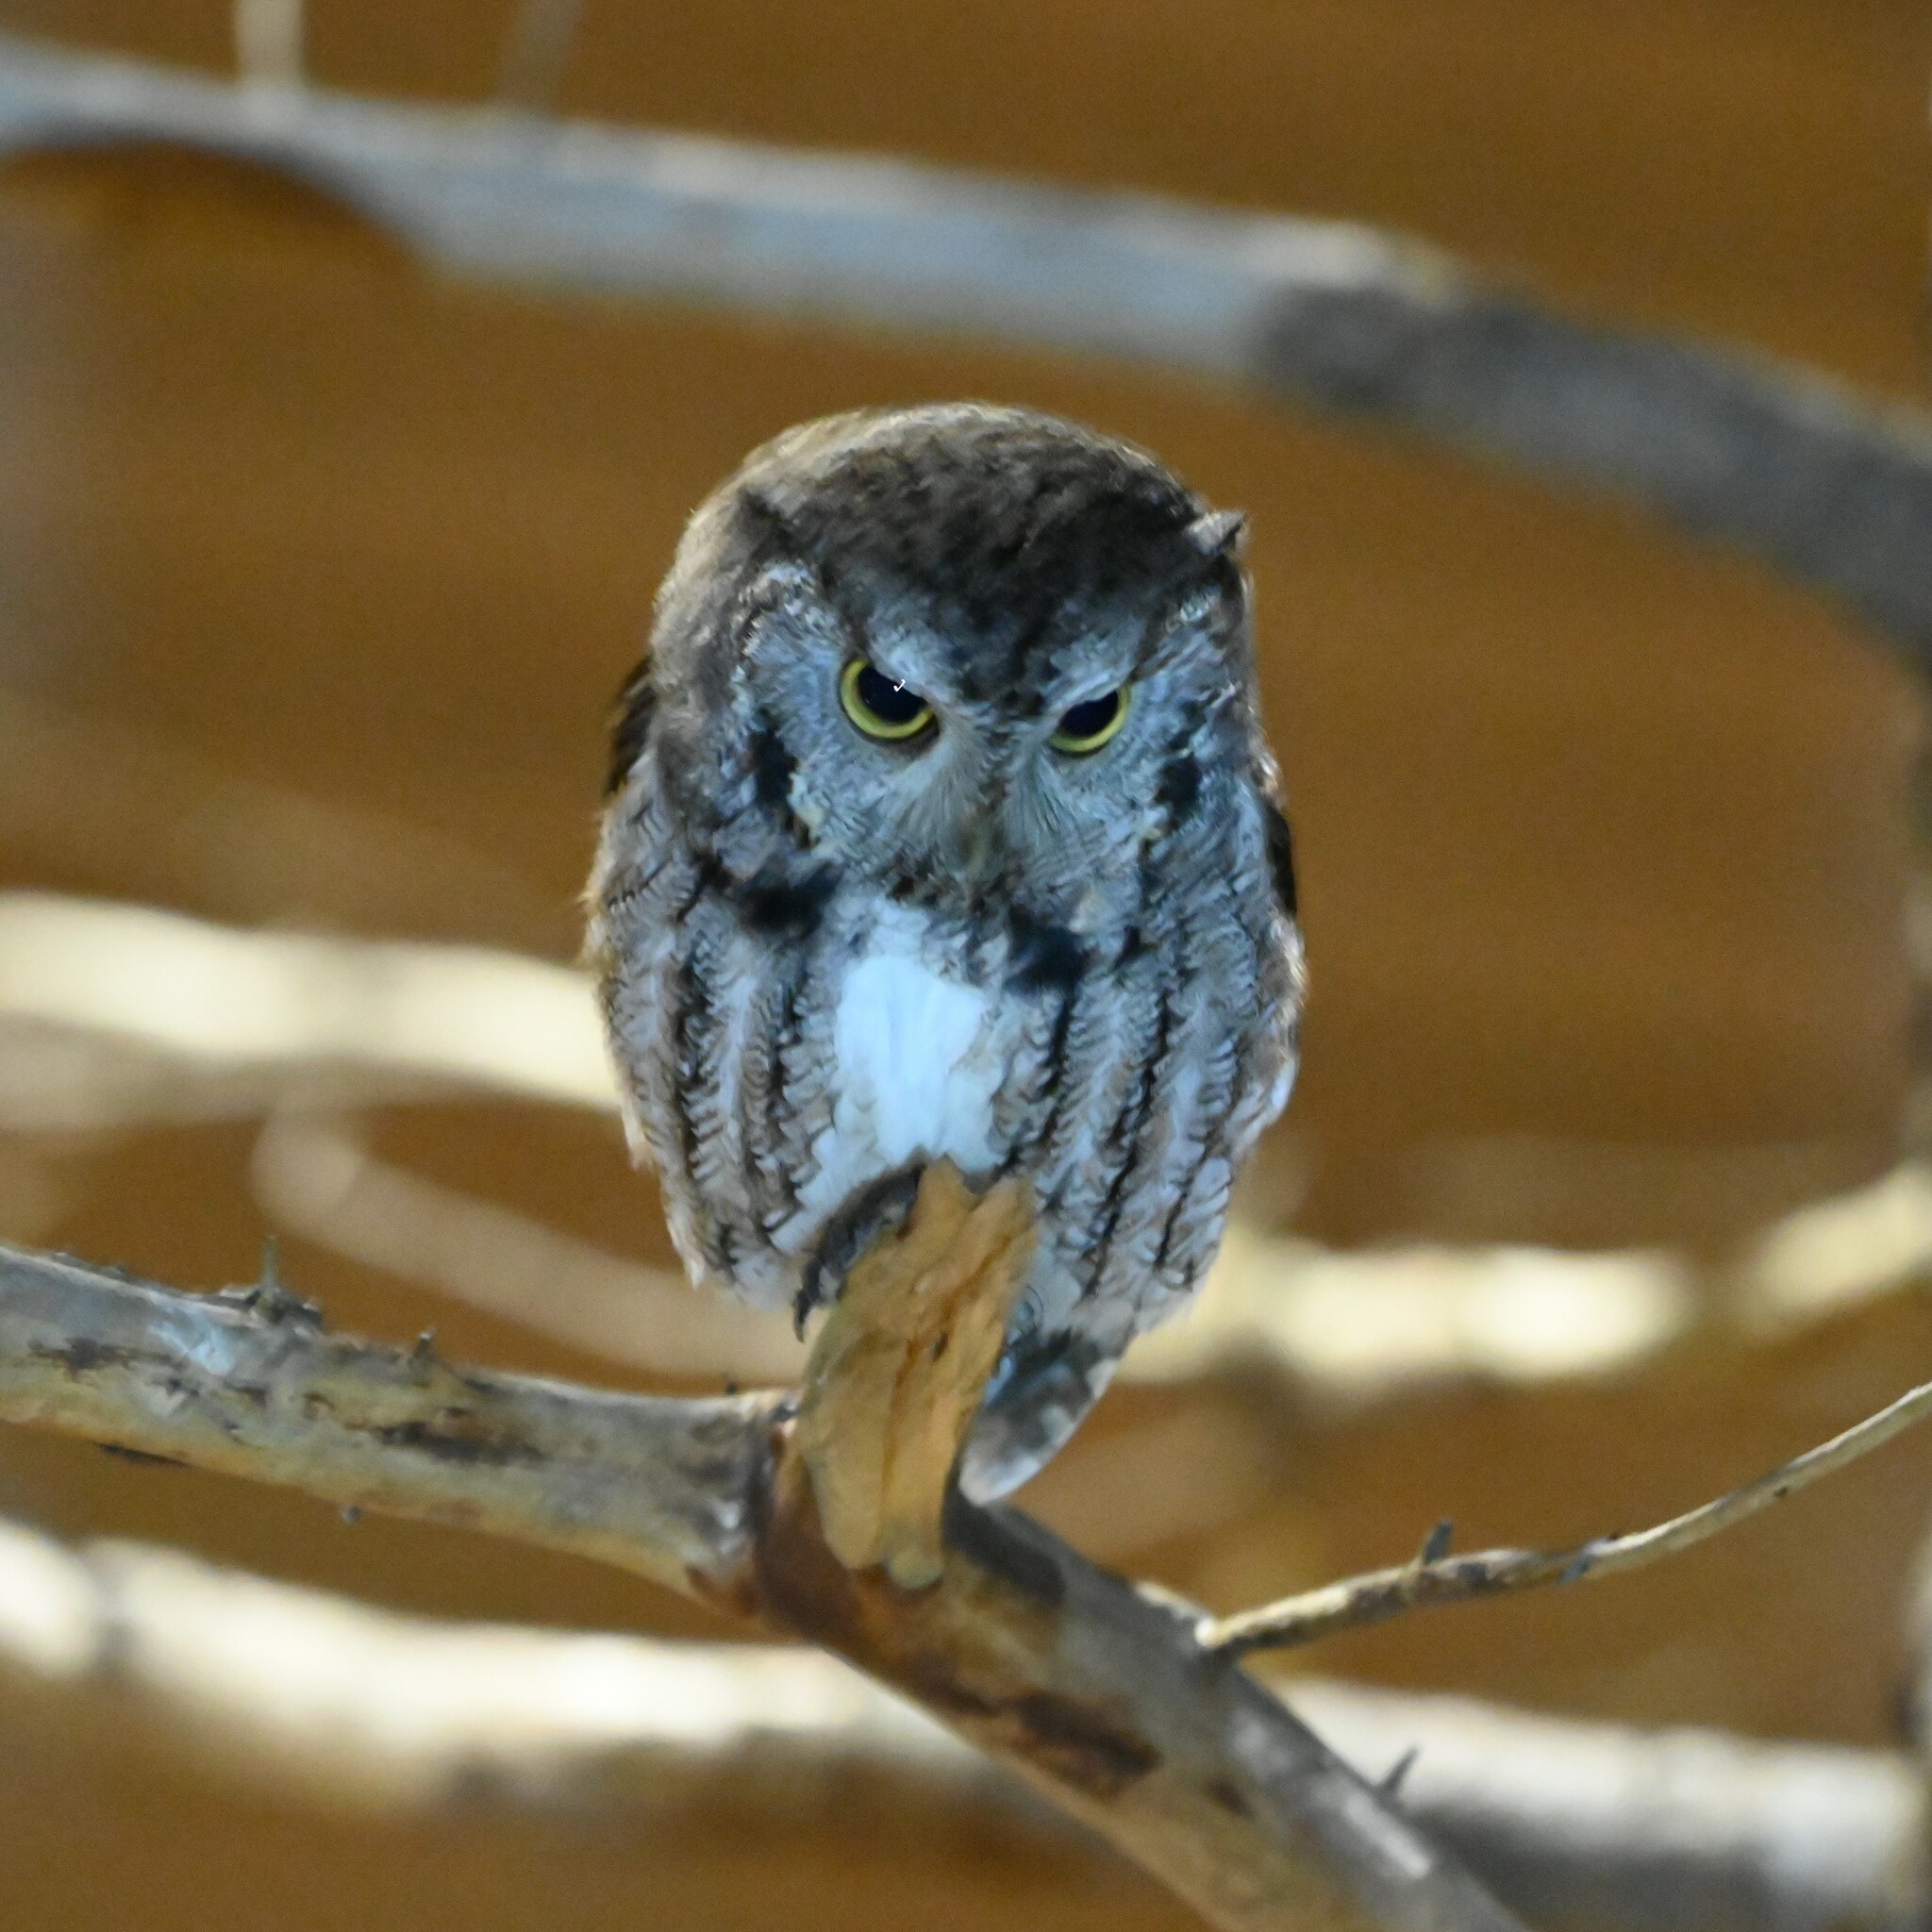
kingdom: Animalia
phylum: Chordata
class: Aves
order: Strigiformes
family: Strigidae
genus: Megascops
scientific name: Megascops asio
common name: Eastern screech-owl
